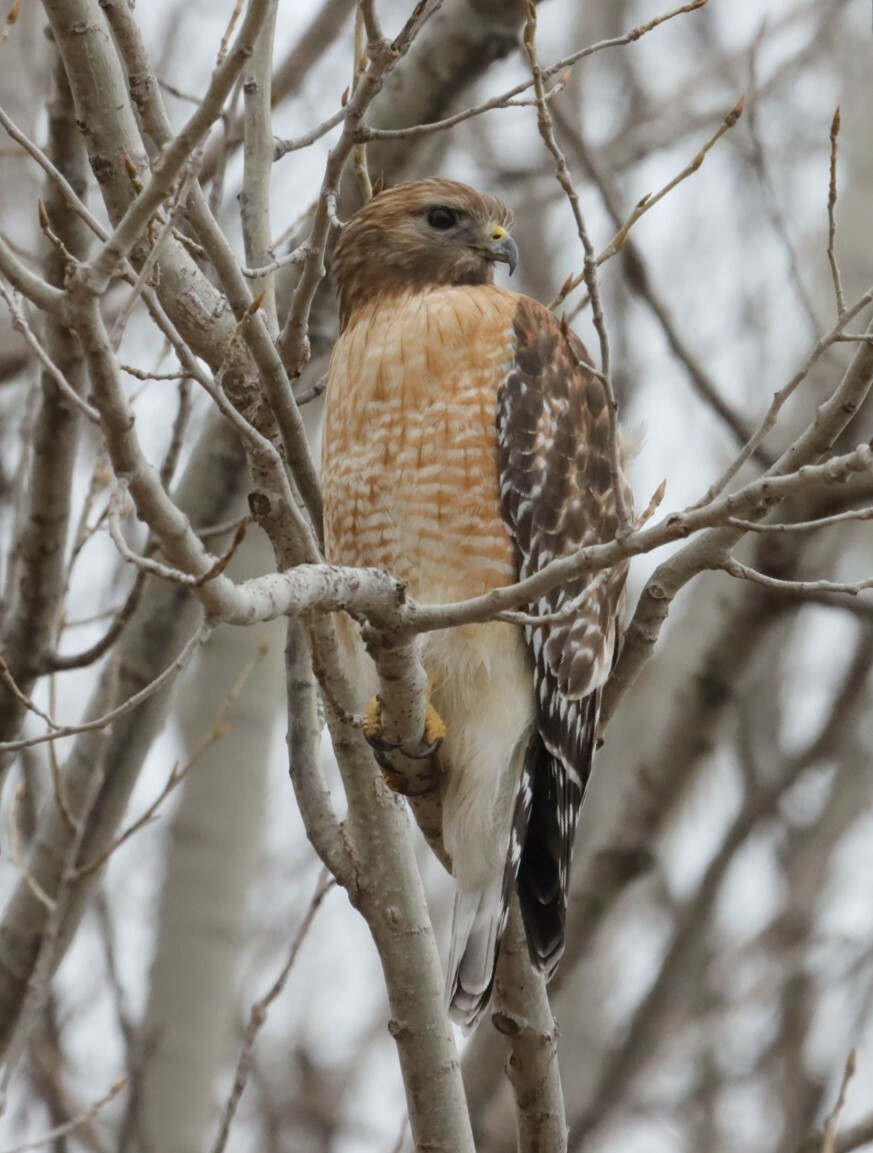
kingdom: Animalia
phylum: Chordata
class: Aves
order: Accipitriformes
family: Accipitridae
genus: Buteo
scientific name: Buteo lineatus
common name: Red-shouldered hawk
